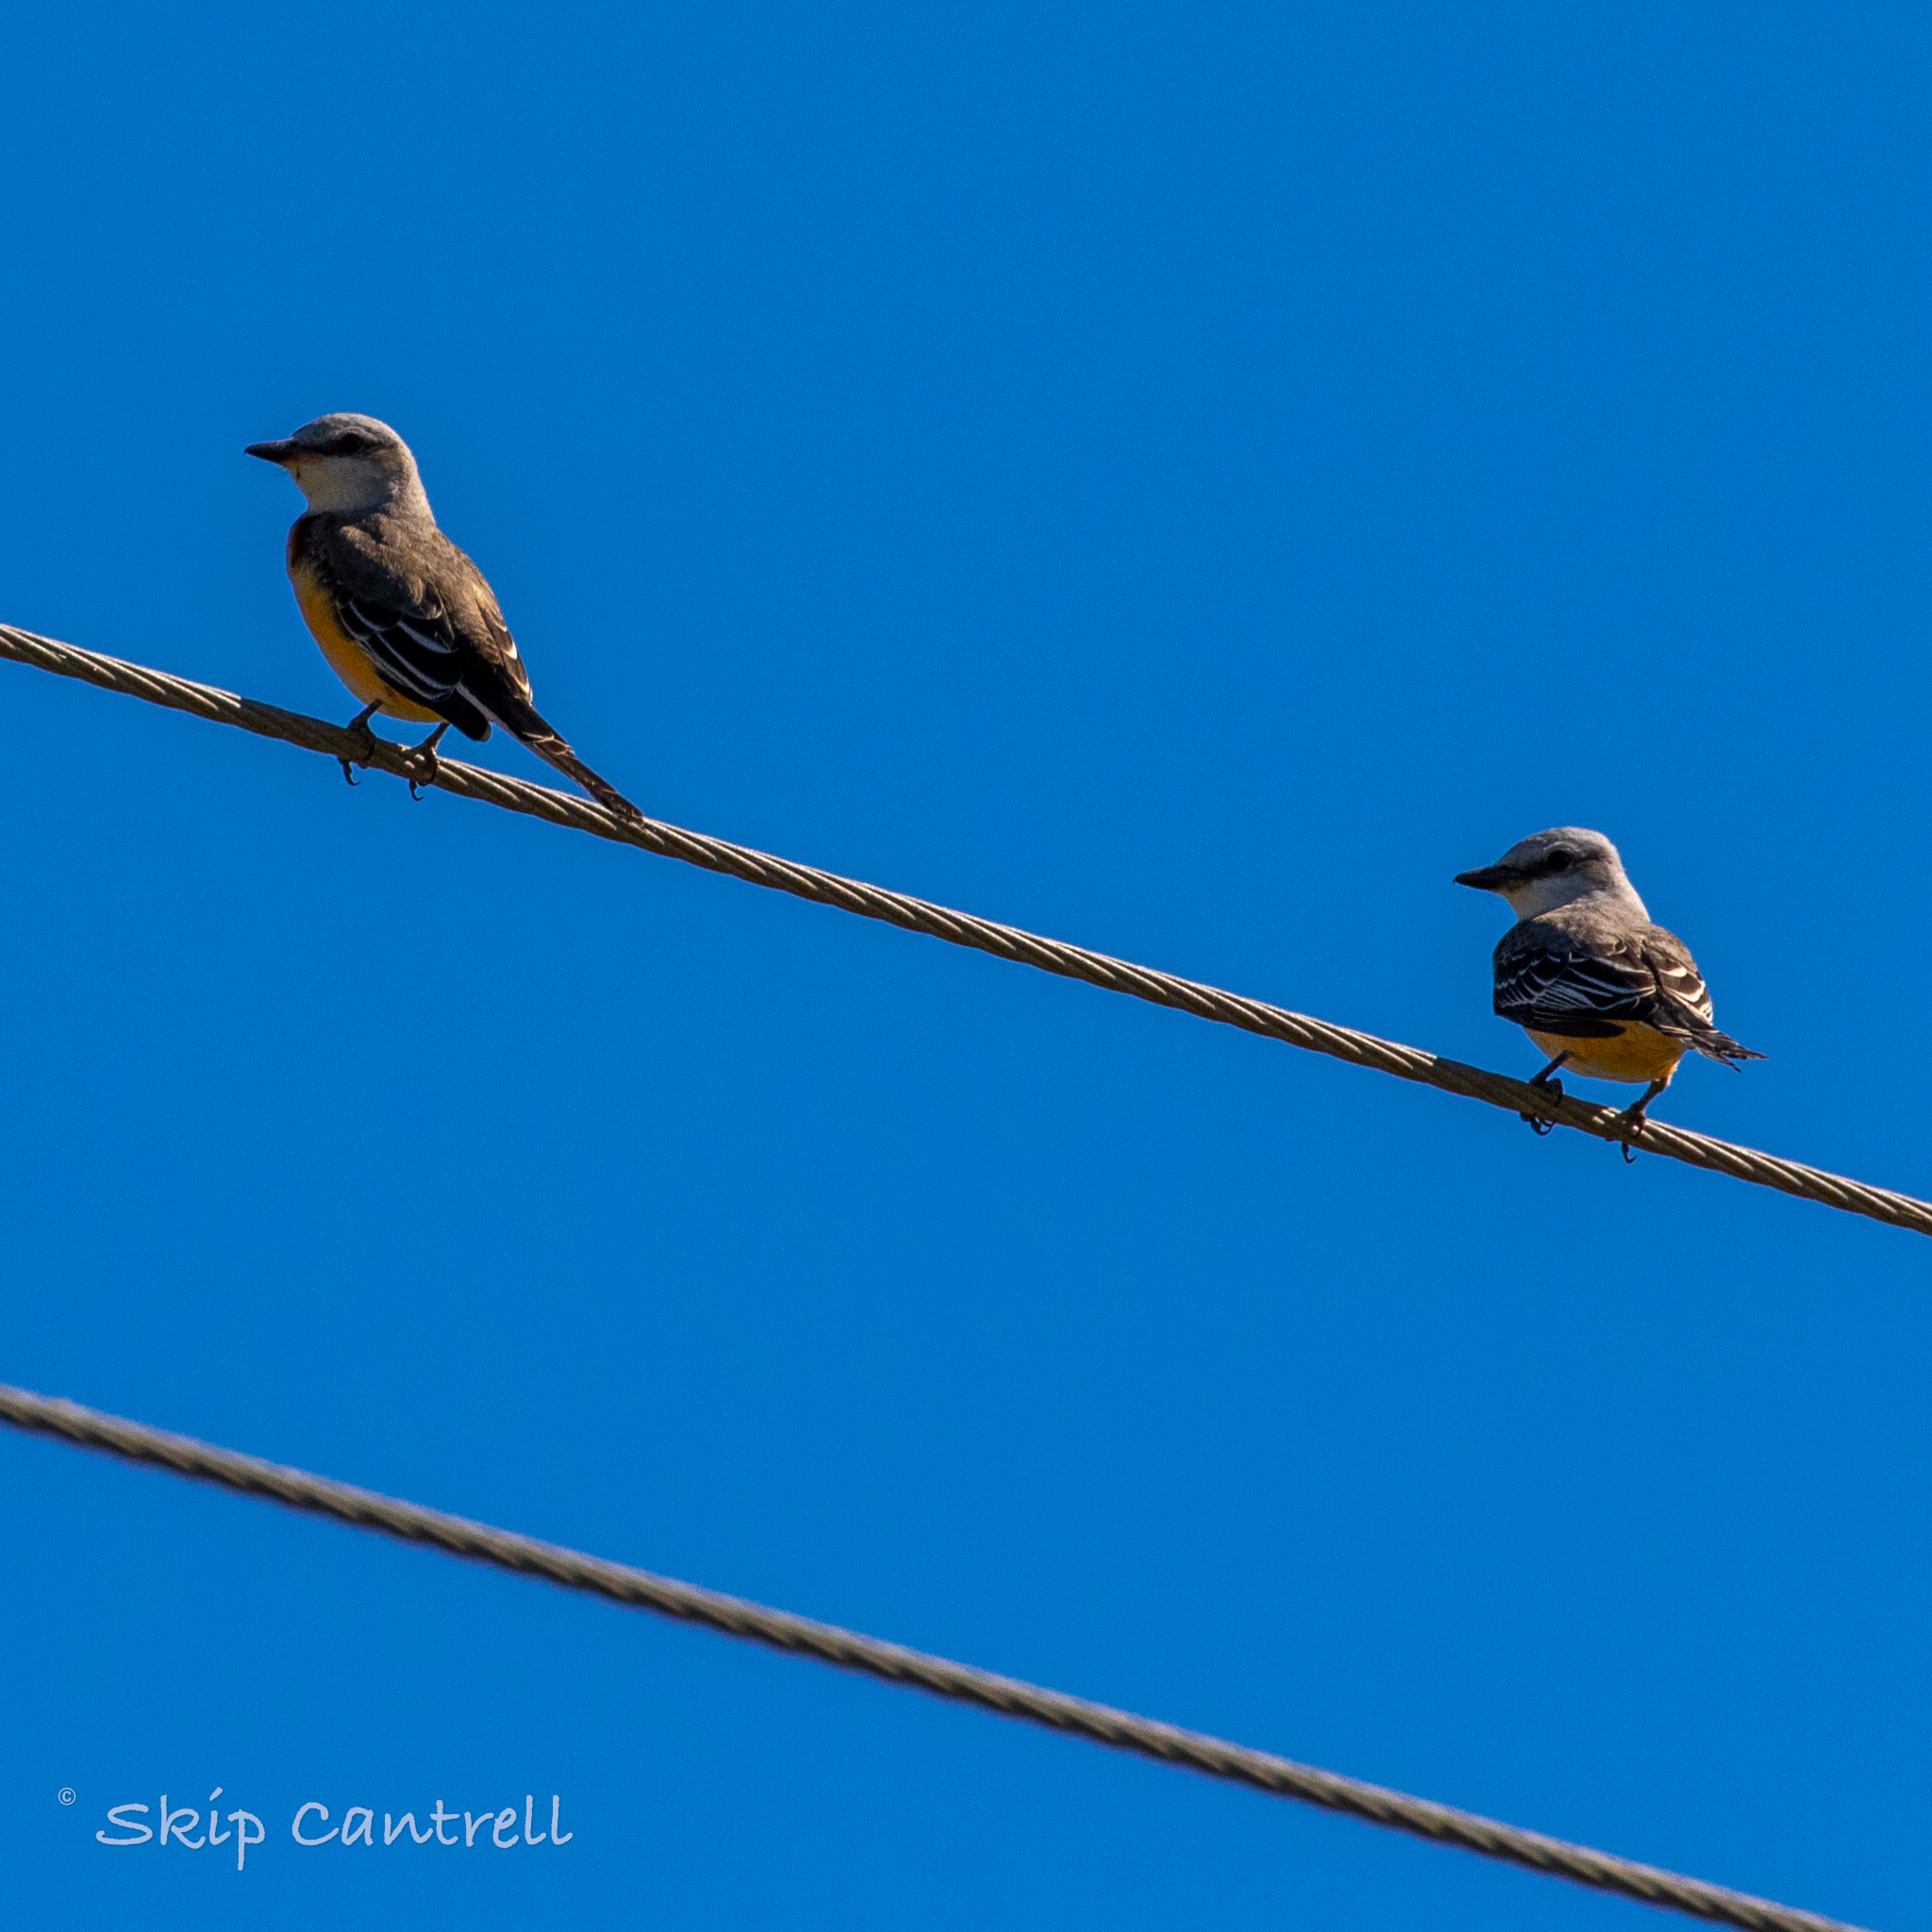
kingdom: Animalia
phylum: Chordata
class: Aves
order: Passeriformes
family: Tyrannidae
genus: Tyrannus
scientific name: Tyrannus forficatus
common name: Scissor-tailed flycatcher
